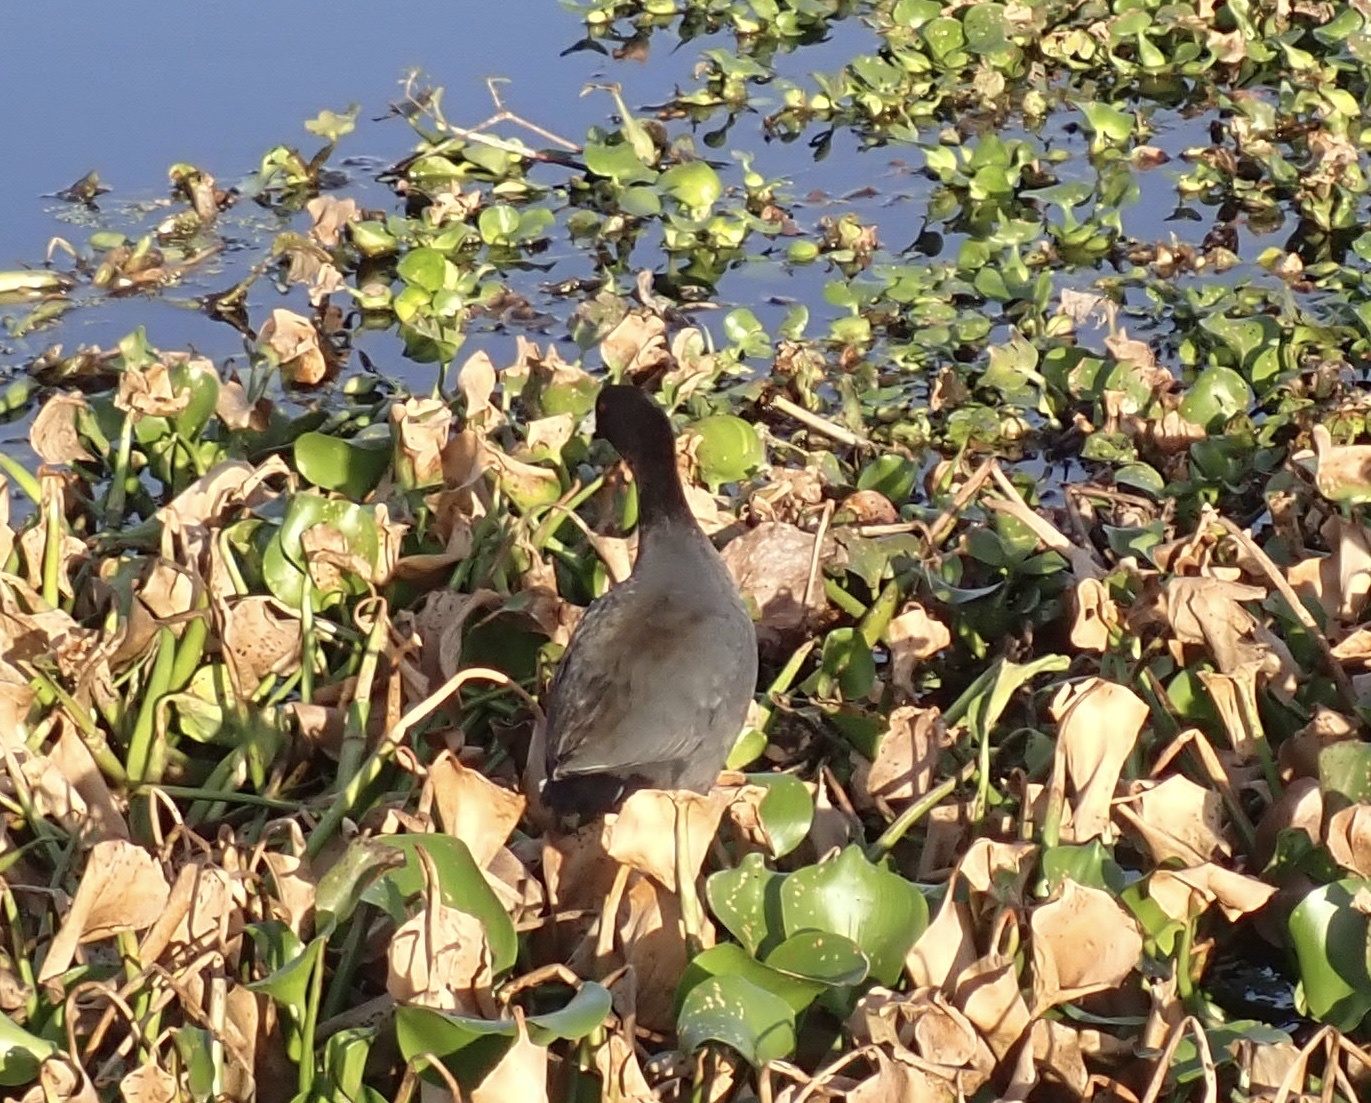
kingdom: Animalia
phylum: Chordata
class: Aves
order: Gruiformes
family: Rallidae
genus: Fulica
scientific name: Fulica americana
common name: American coot
